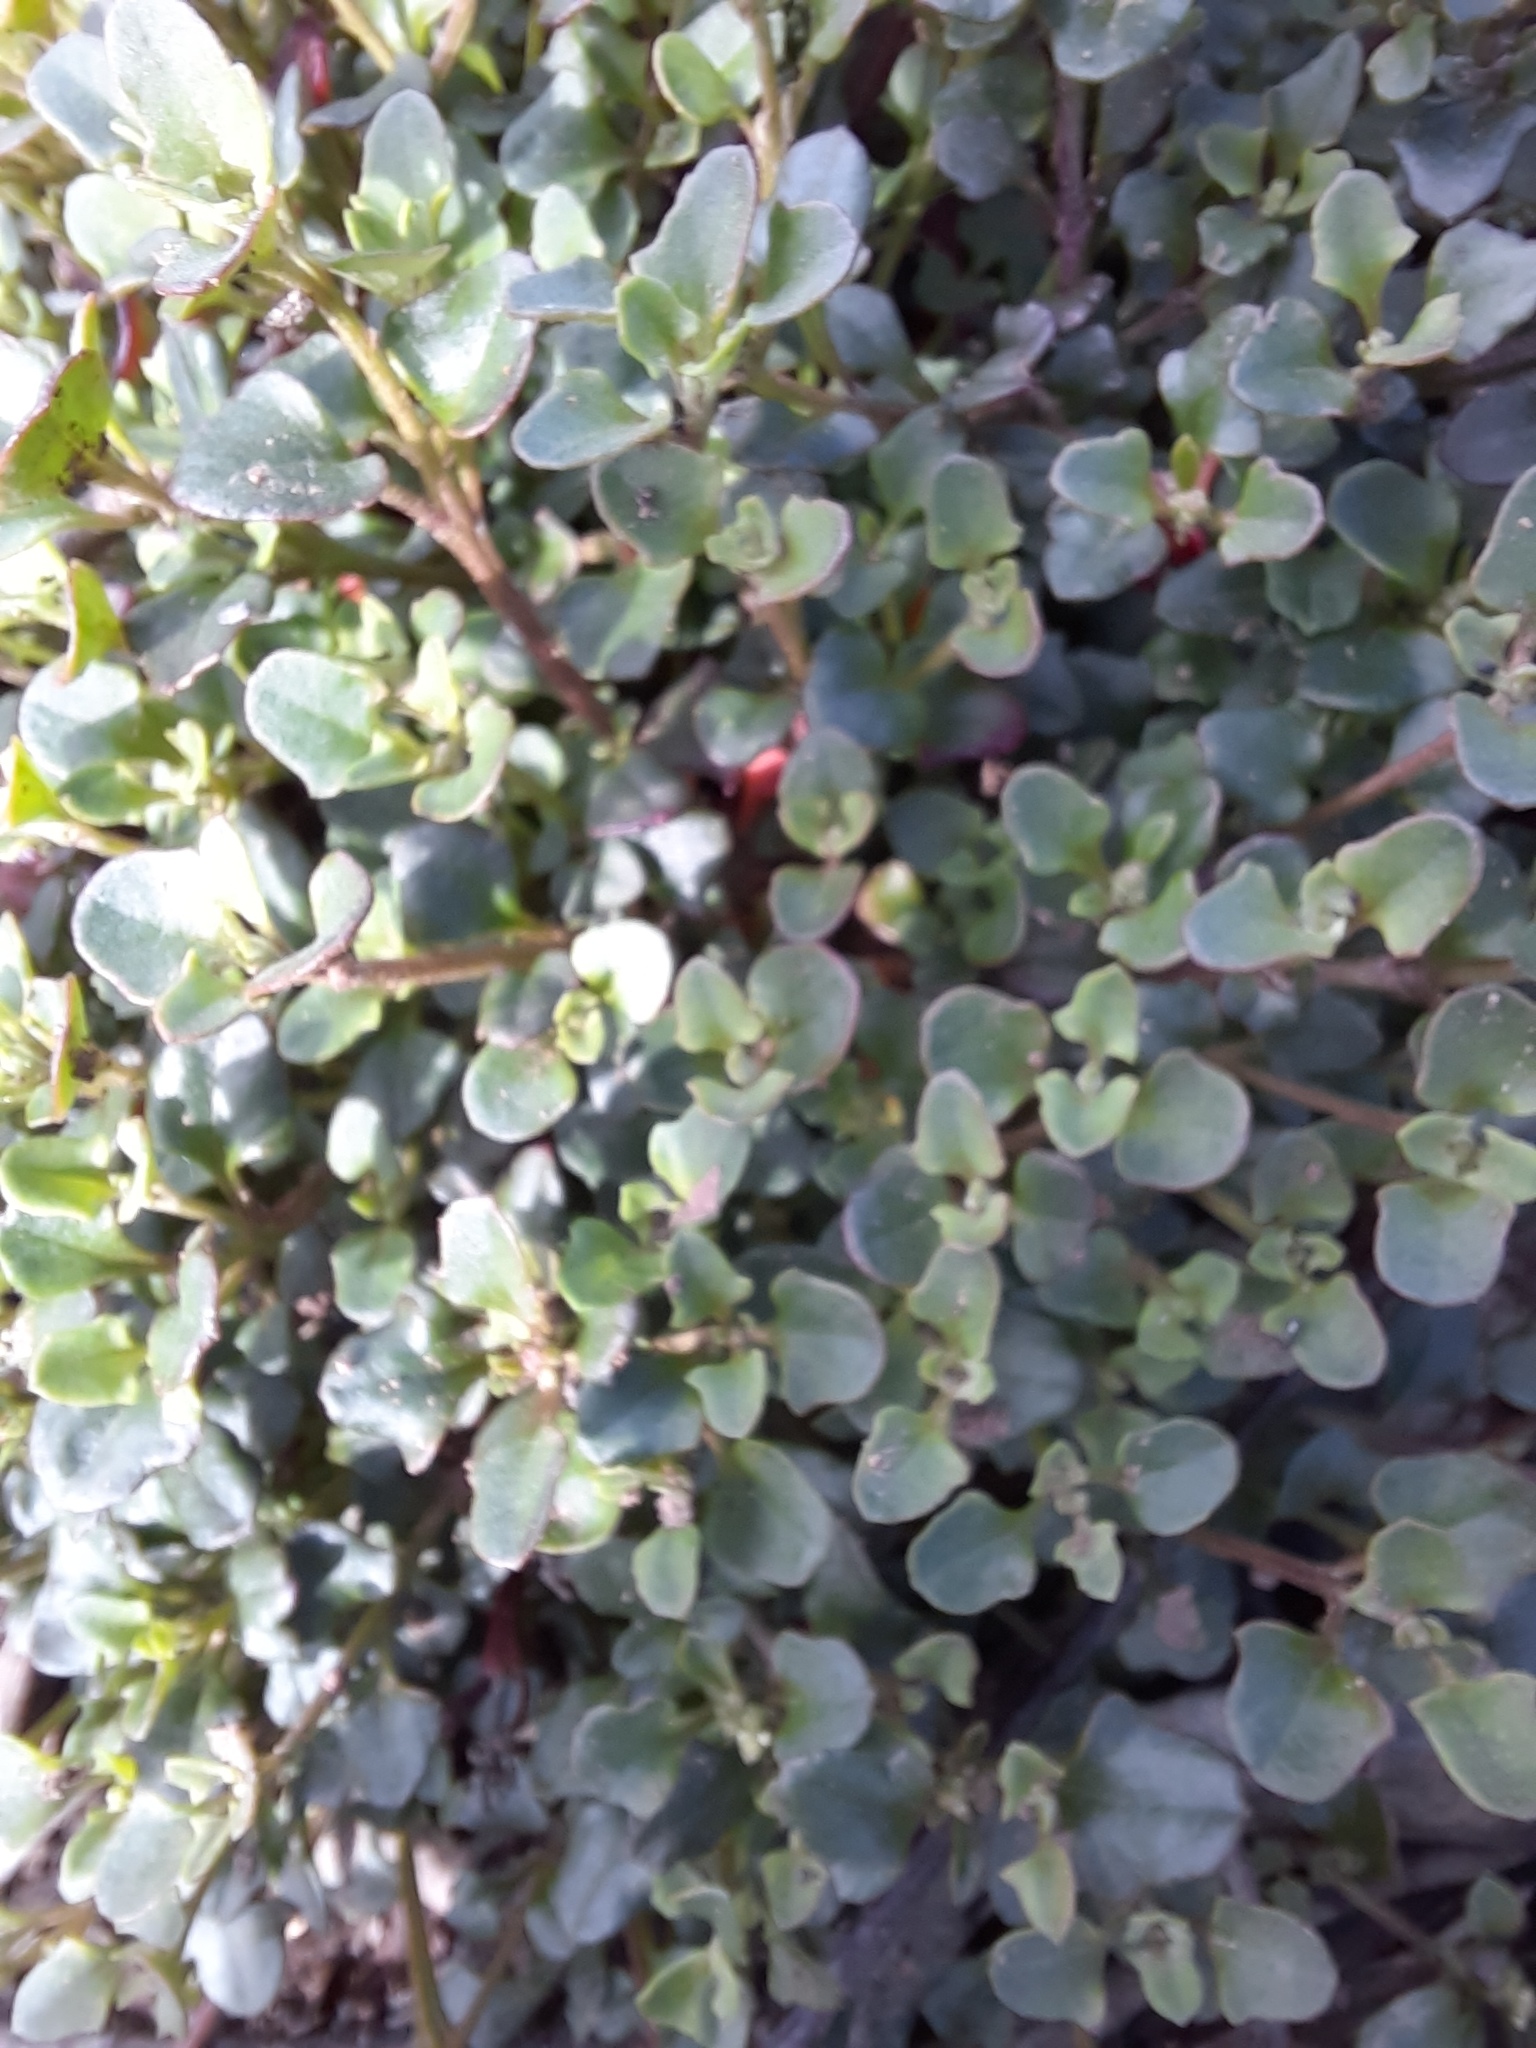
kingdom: Plantae
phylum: Tracheophyta
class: Magnoliopsida
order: Caryophyllales
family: Amaranthaceae
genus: Chenopodium
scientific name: Chenopodium robertianum
